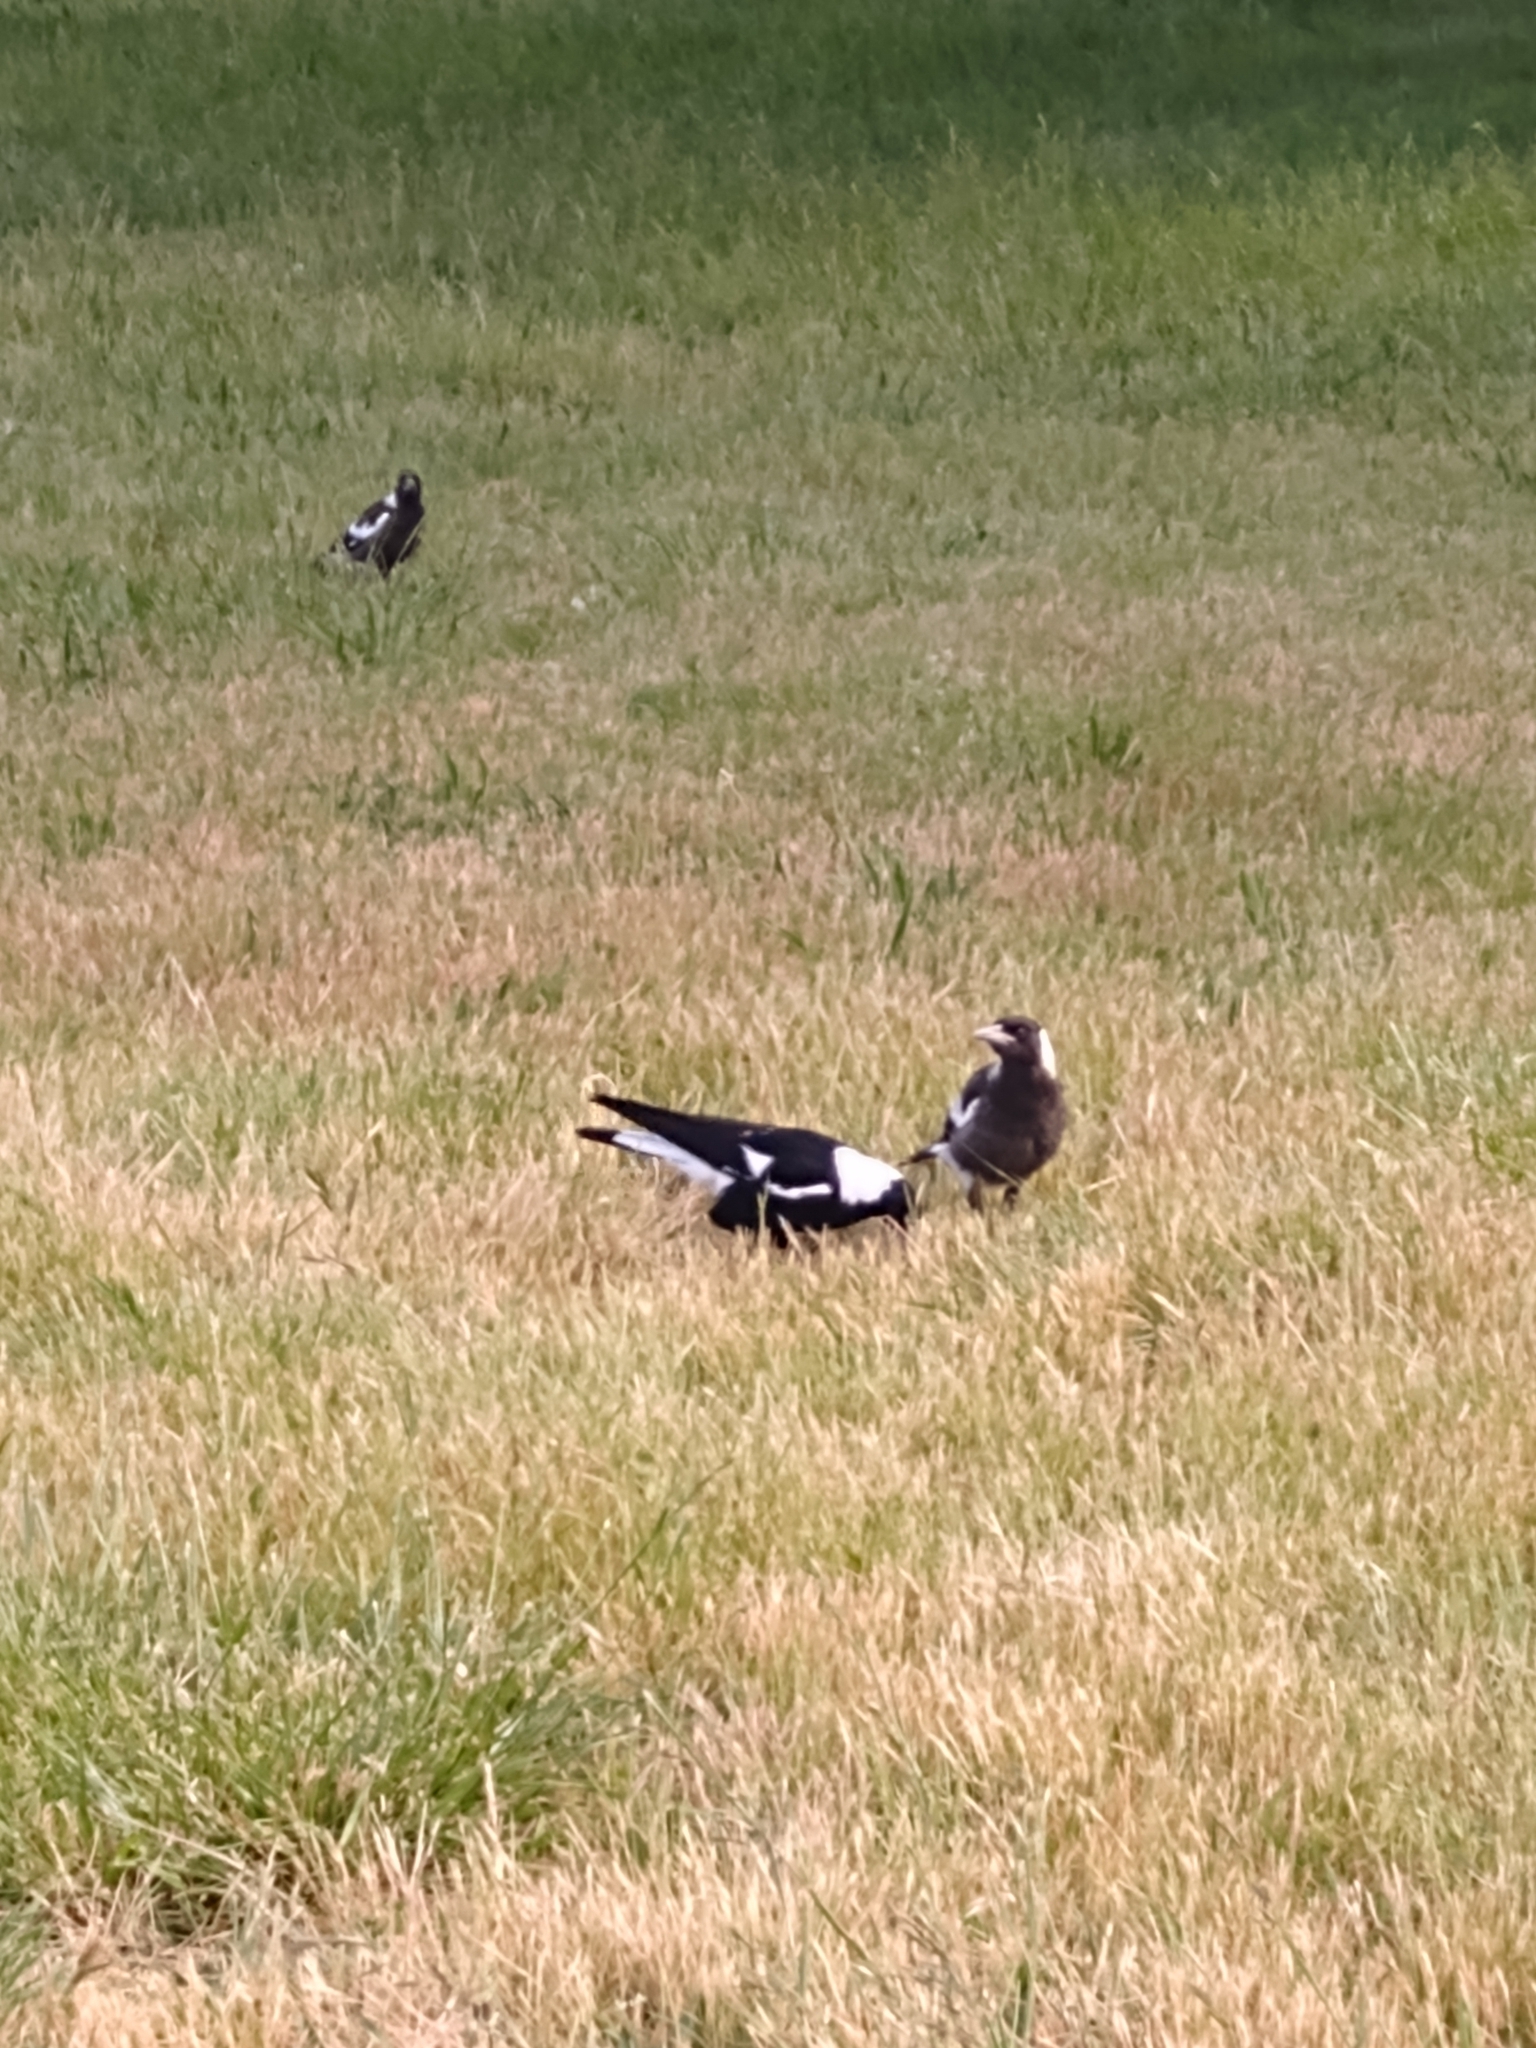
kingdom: Animalia
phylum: Chordata
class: Aves
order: Passeriformes
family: Cracticidae
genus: Gymnorhina
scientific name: Gymnorhina tibicen
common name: Australian magpie
